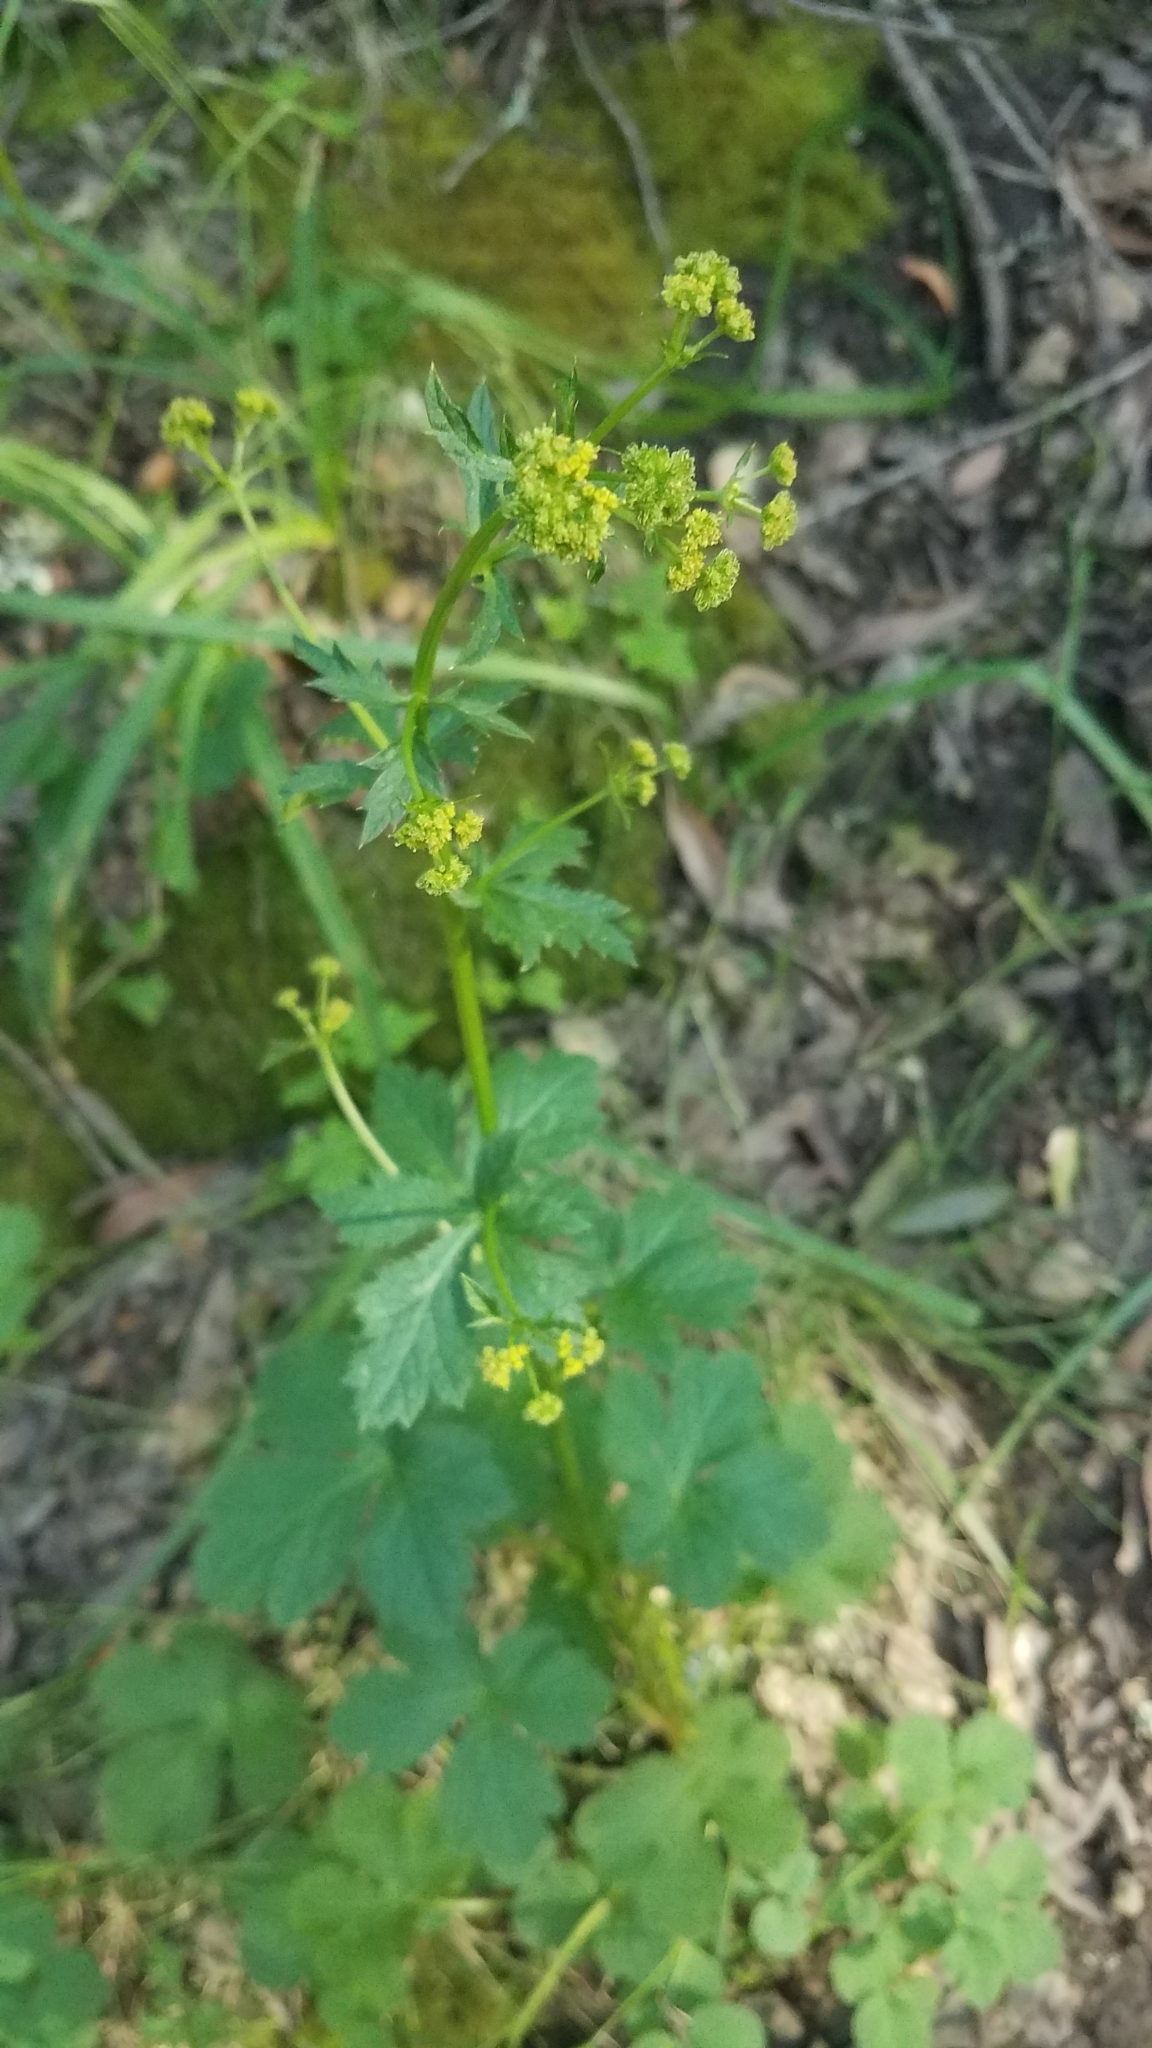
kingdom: Plantae
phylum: Tracheophyta
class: Magnoliopsida
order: Apiales
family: Apiaceae
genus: Sanicula
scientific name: Sanicula crassicaulis
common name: Western snakeroot
